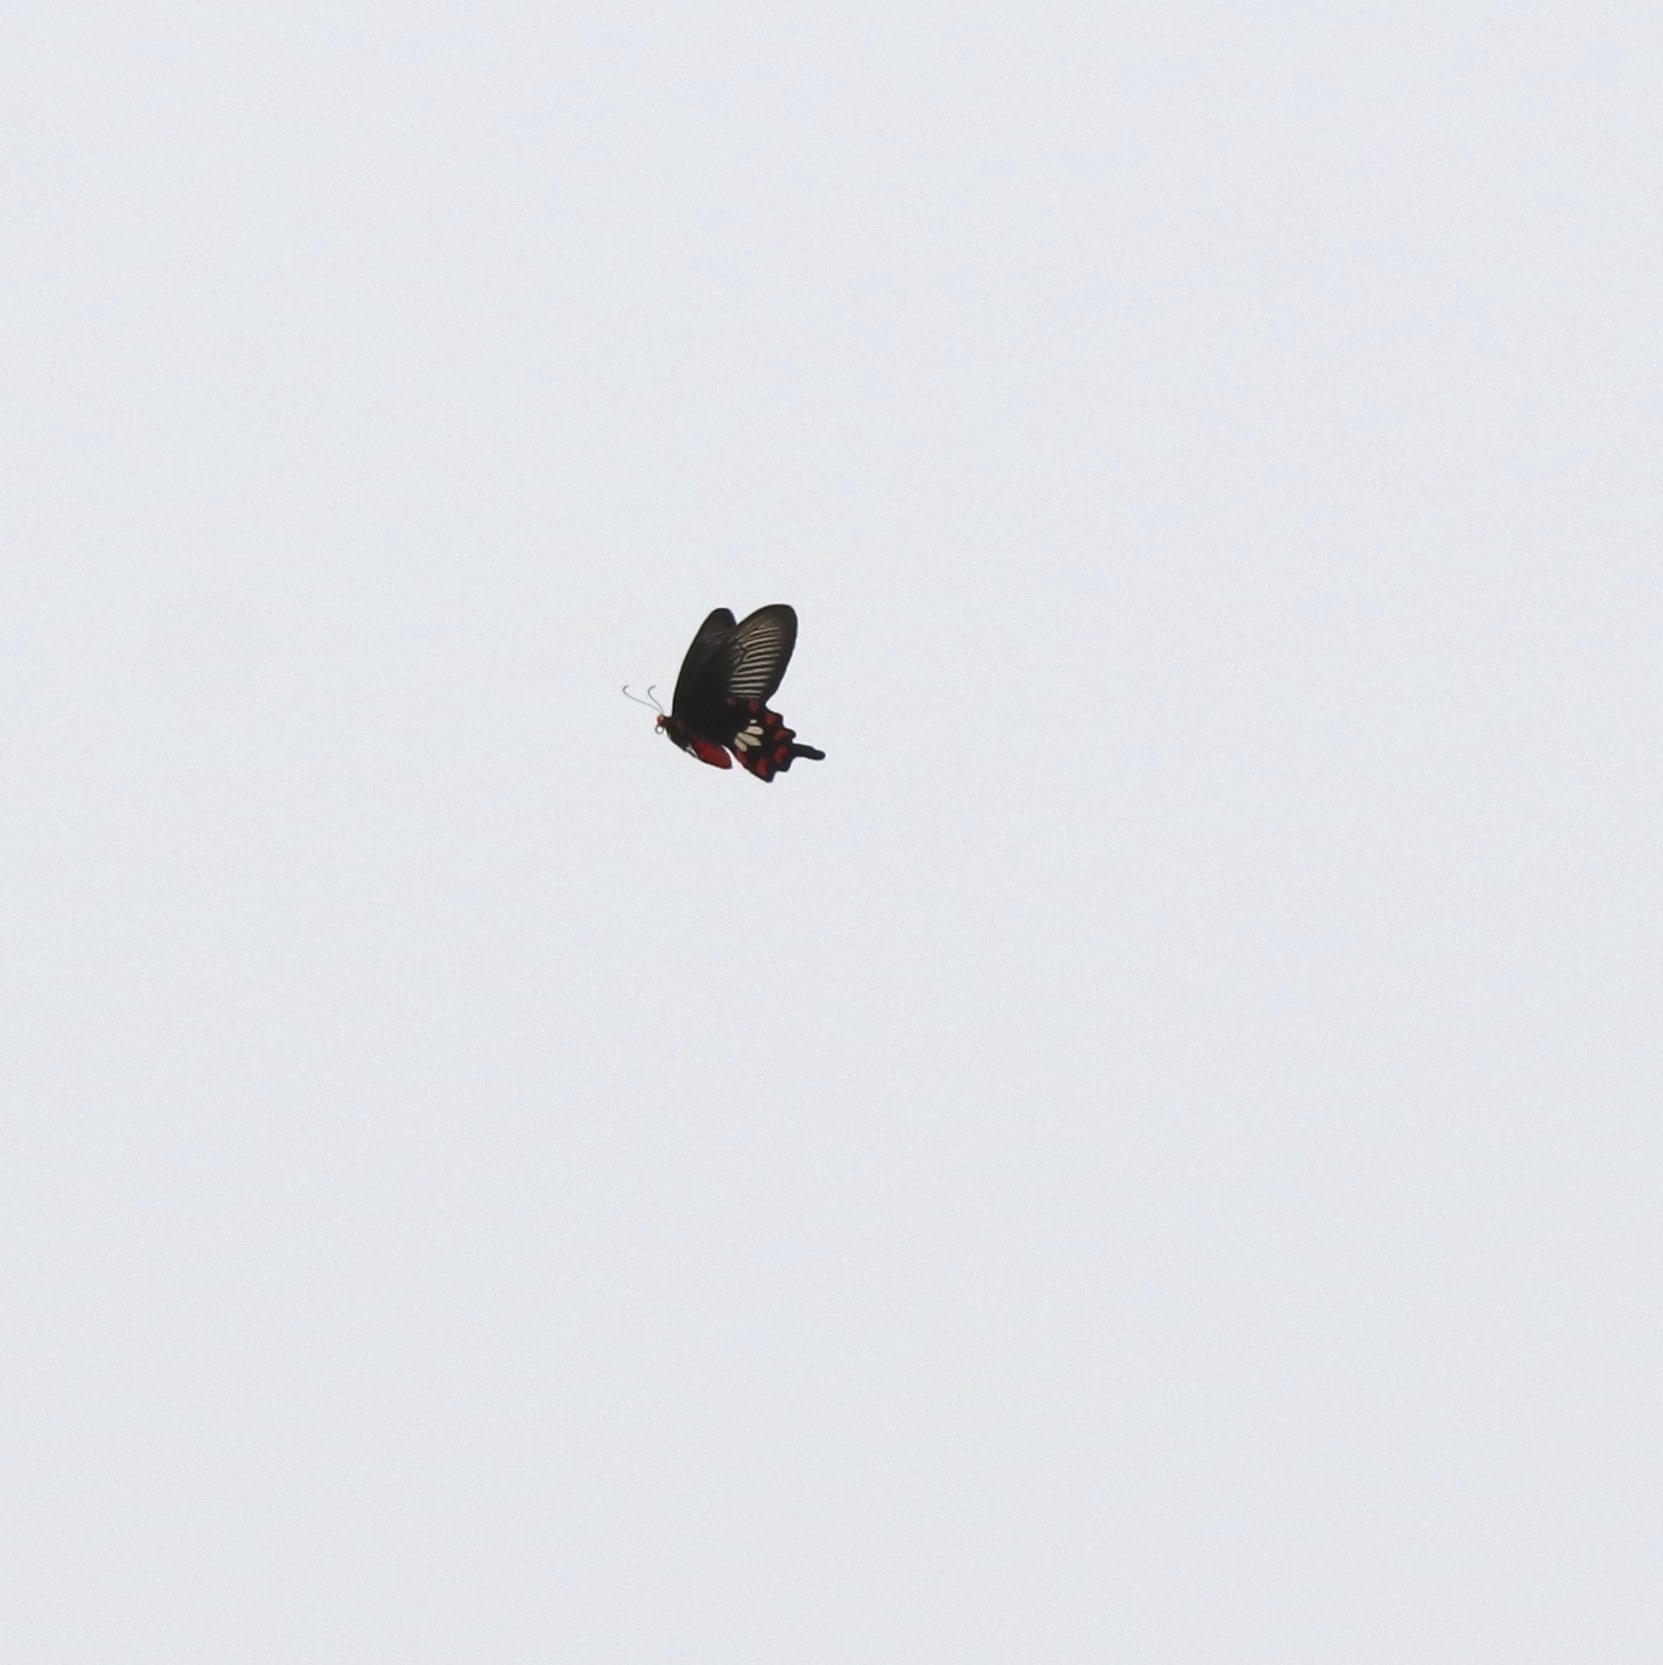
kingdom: Animalia
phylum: Arthropoda
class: Insecta
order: Lepidoptera
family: Papilionidae
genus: Pachliopta
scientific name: Pachliopta aristolochiae
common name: Common rose
